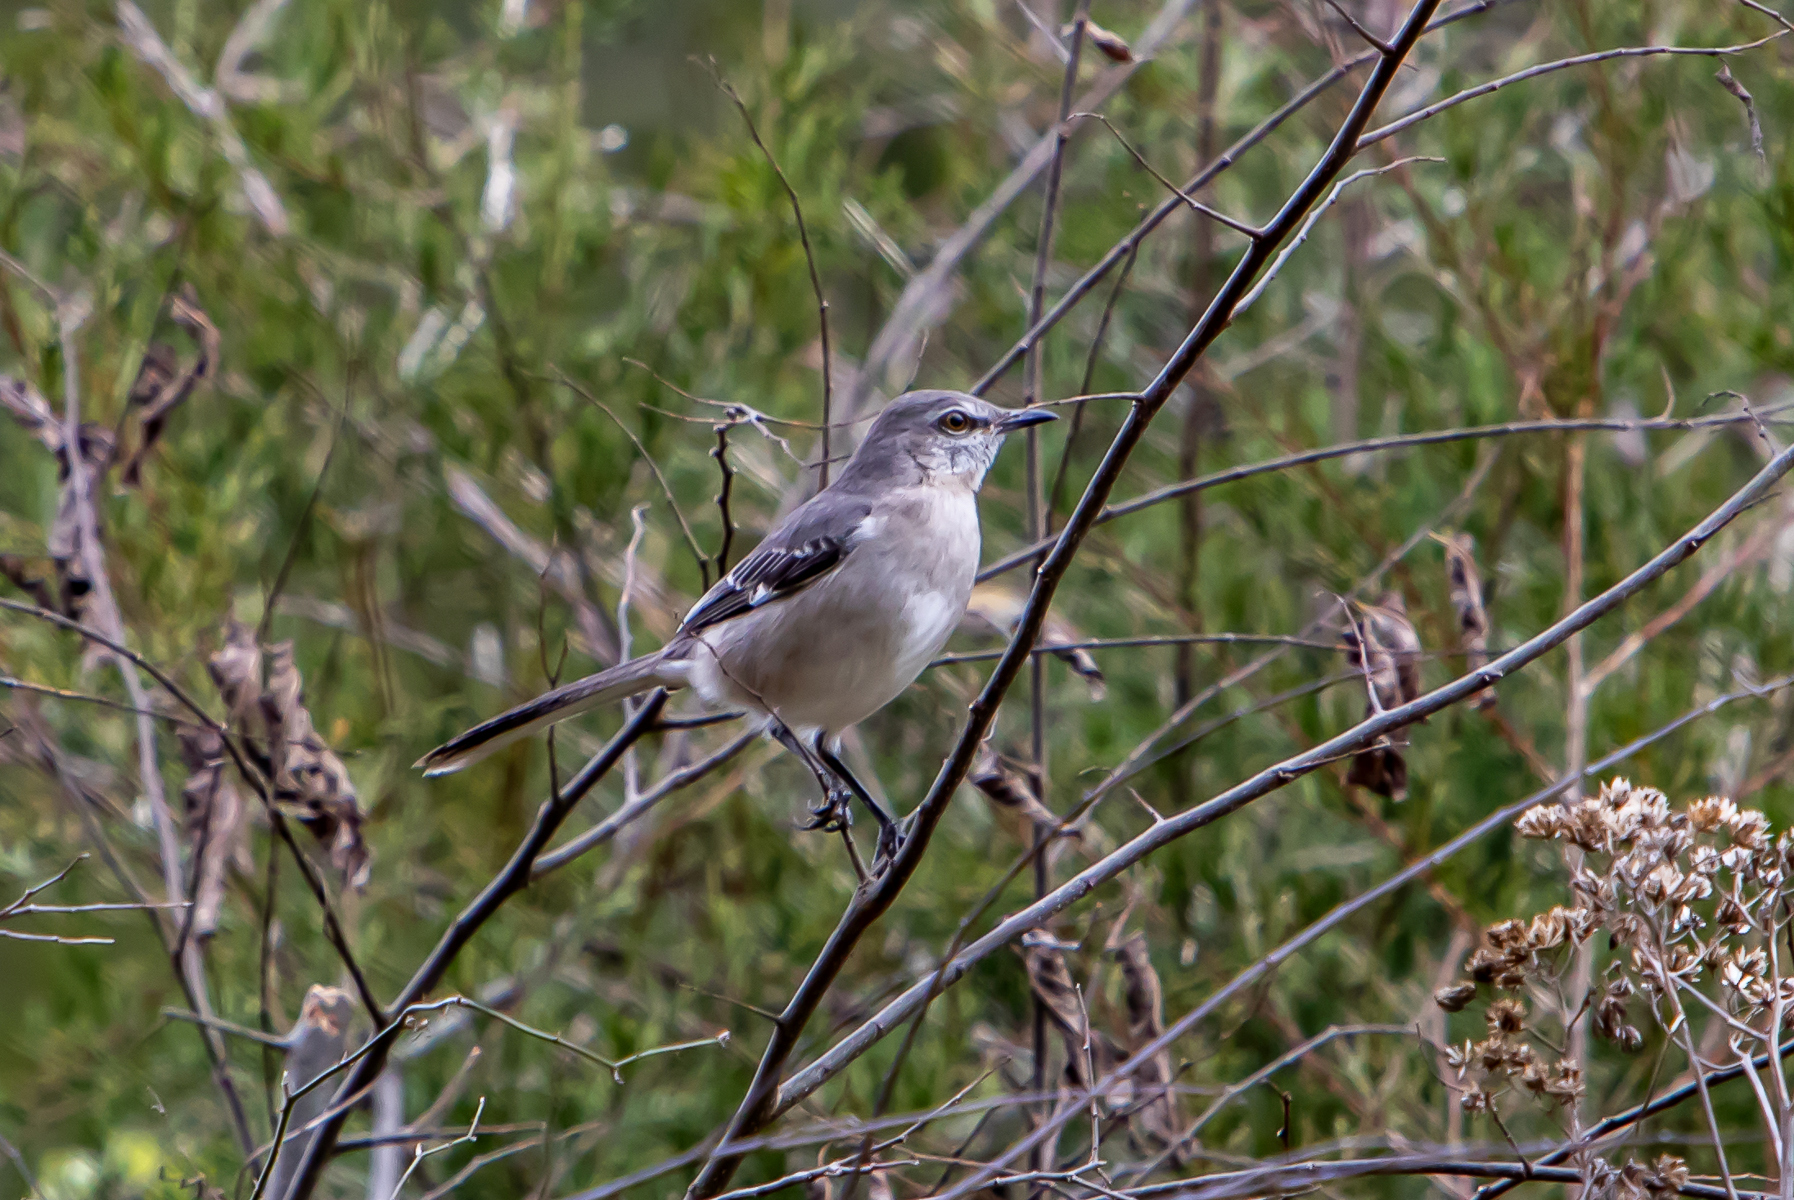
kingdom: Animalia
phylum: Chordata
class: Aves
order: Passeriformes
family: Mimidae
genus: Mimus
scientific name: Mimus polyglottos
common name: Northern mockingbird
